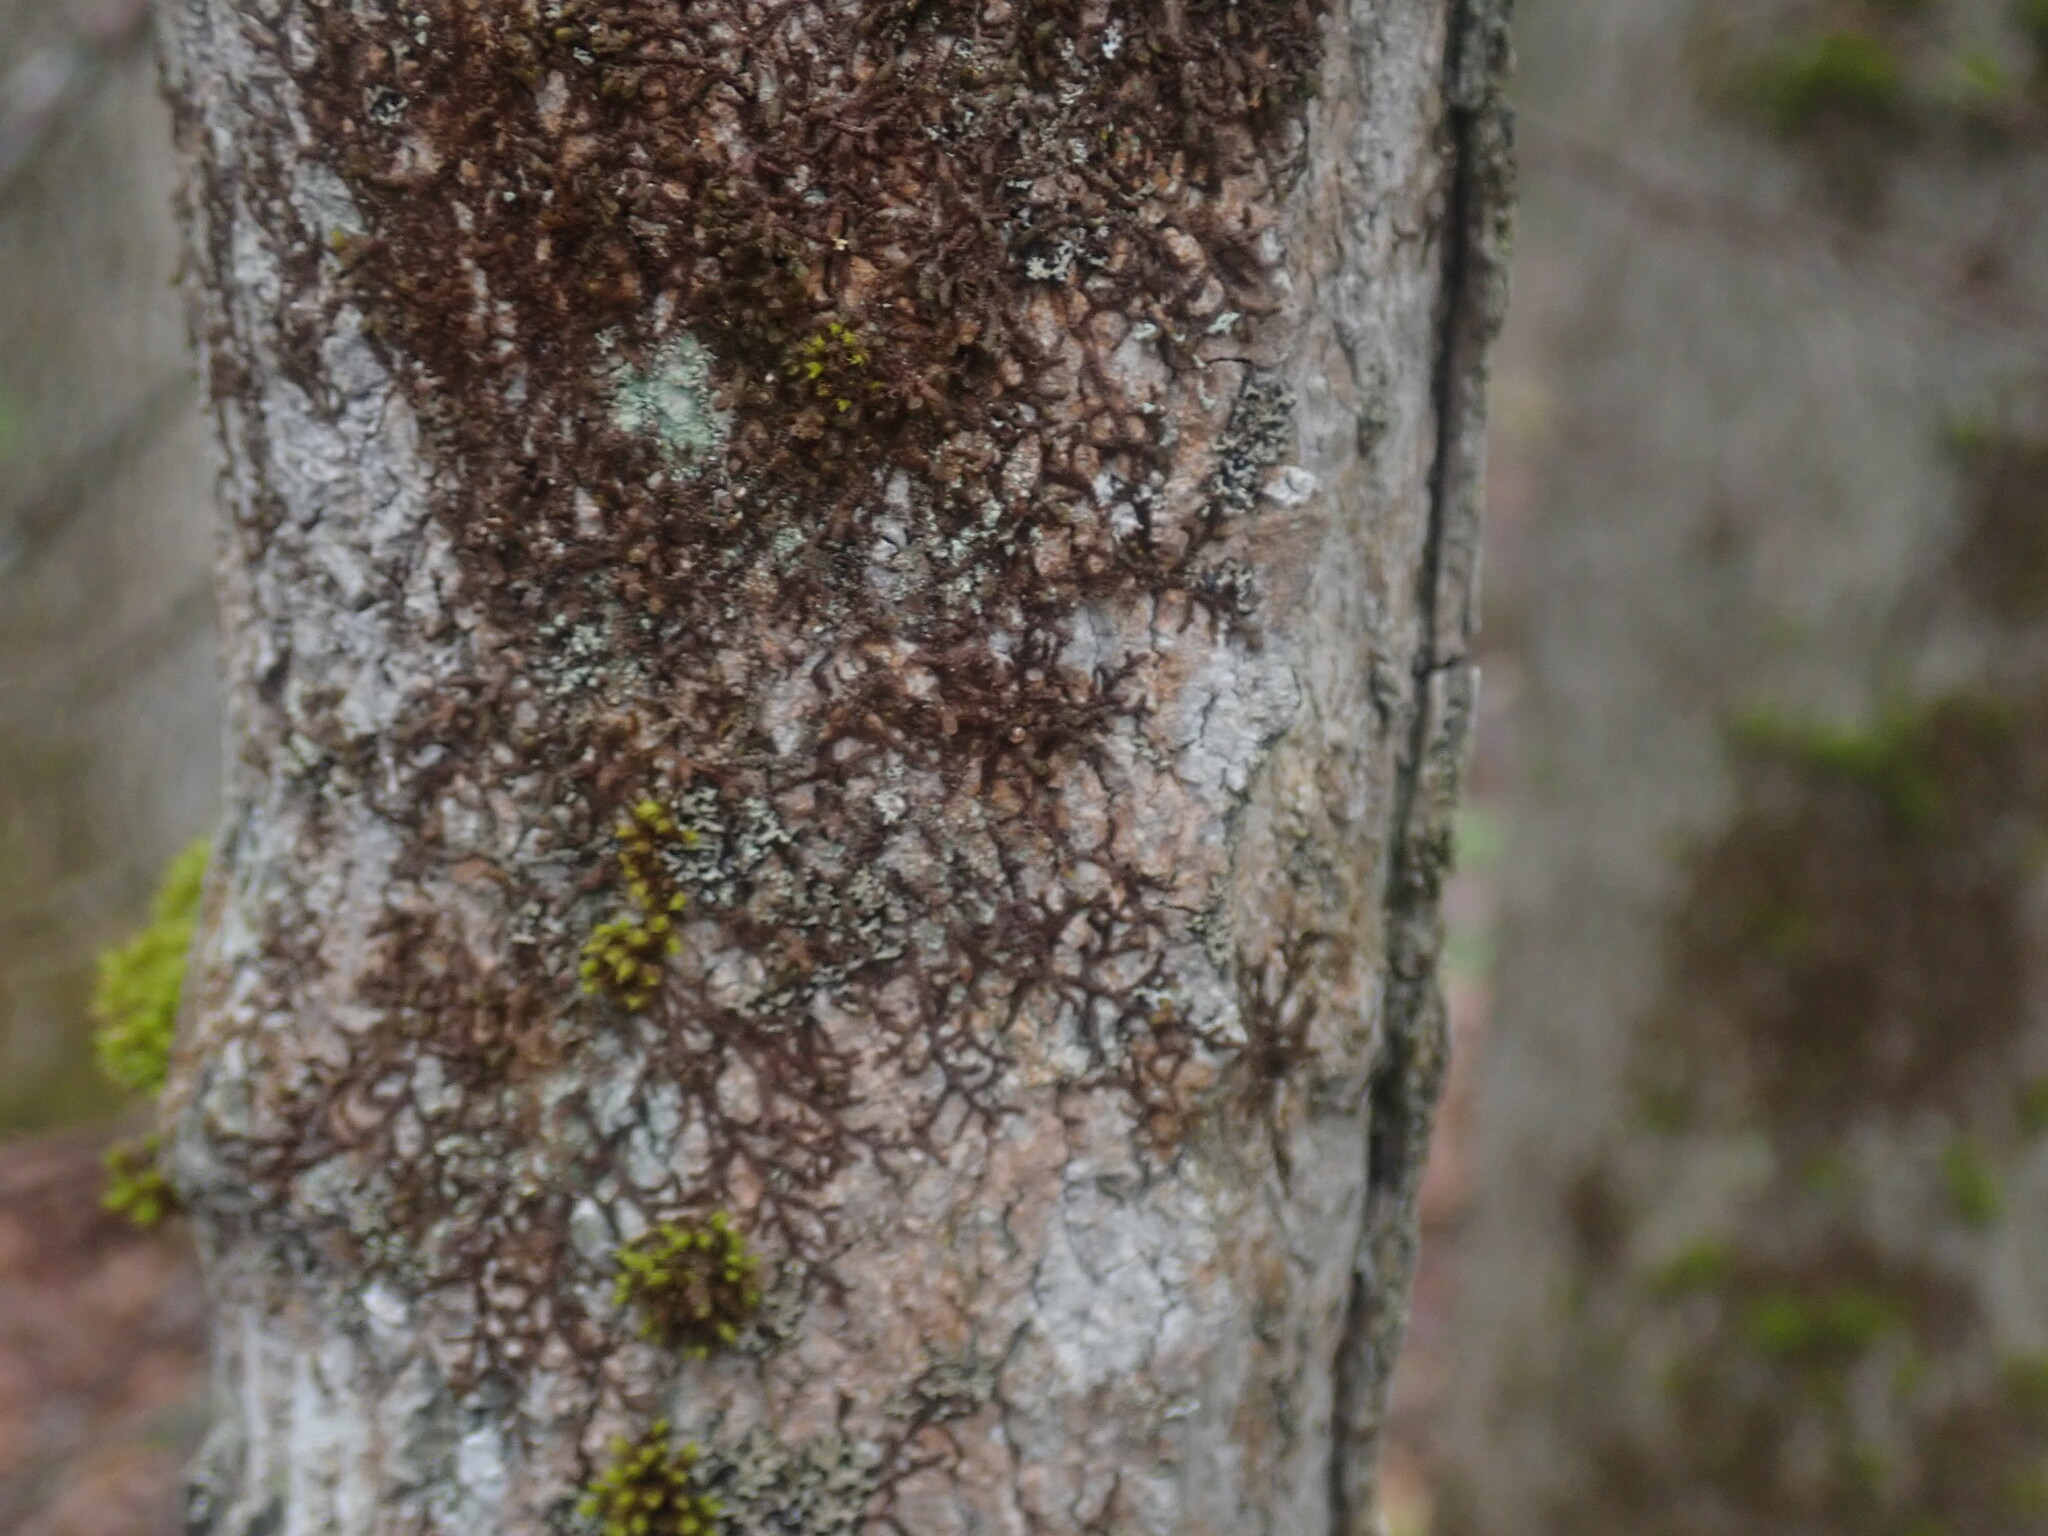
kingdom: Plantae
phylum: Marchantiophyta
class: Jungermanniopsida
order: Porellales
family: Frullaniaceae
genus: Frullania
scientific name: Frullania
